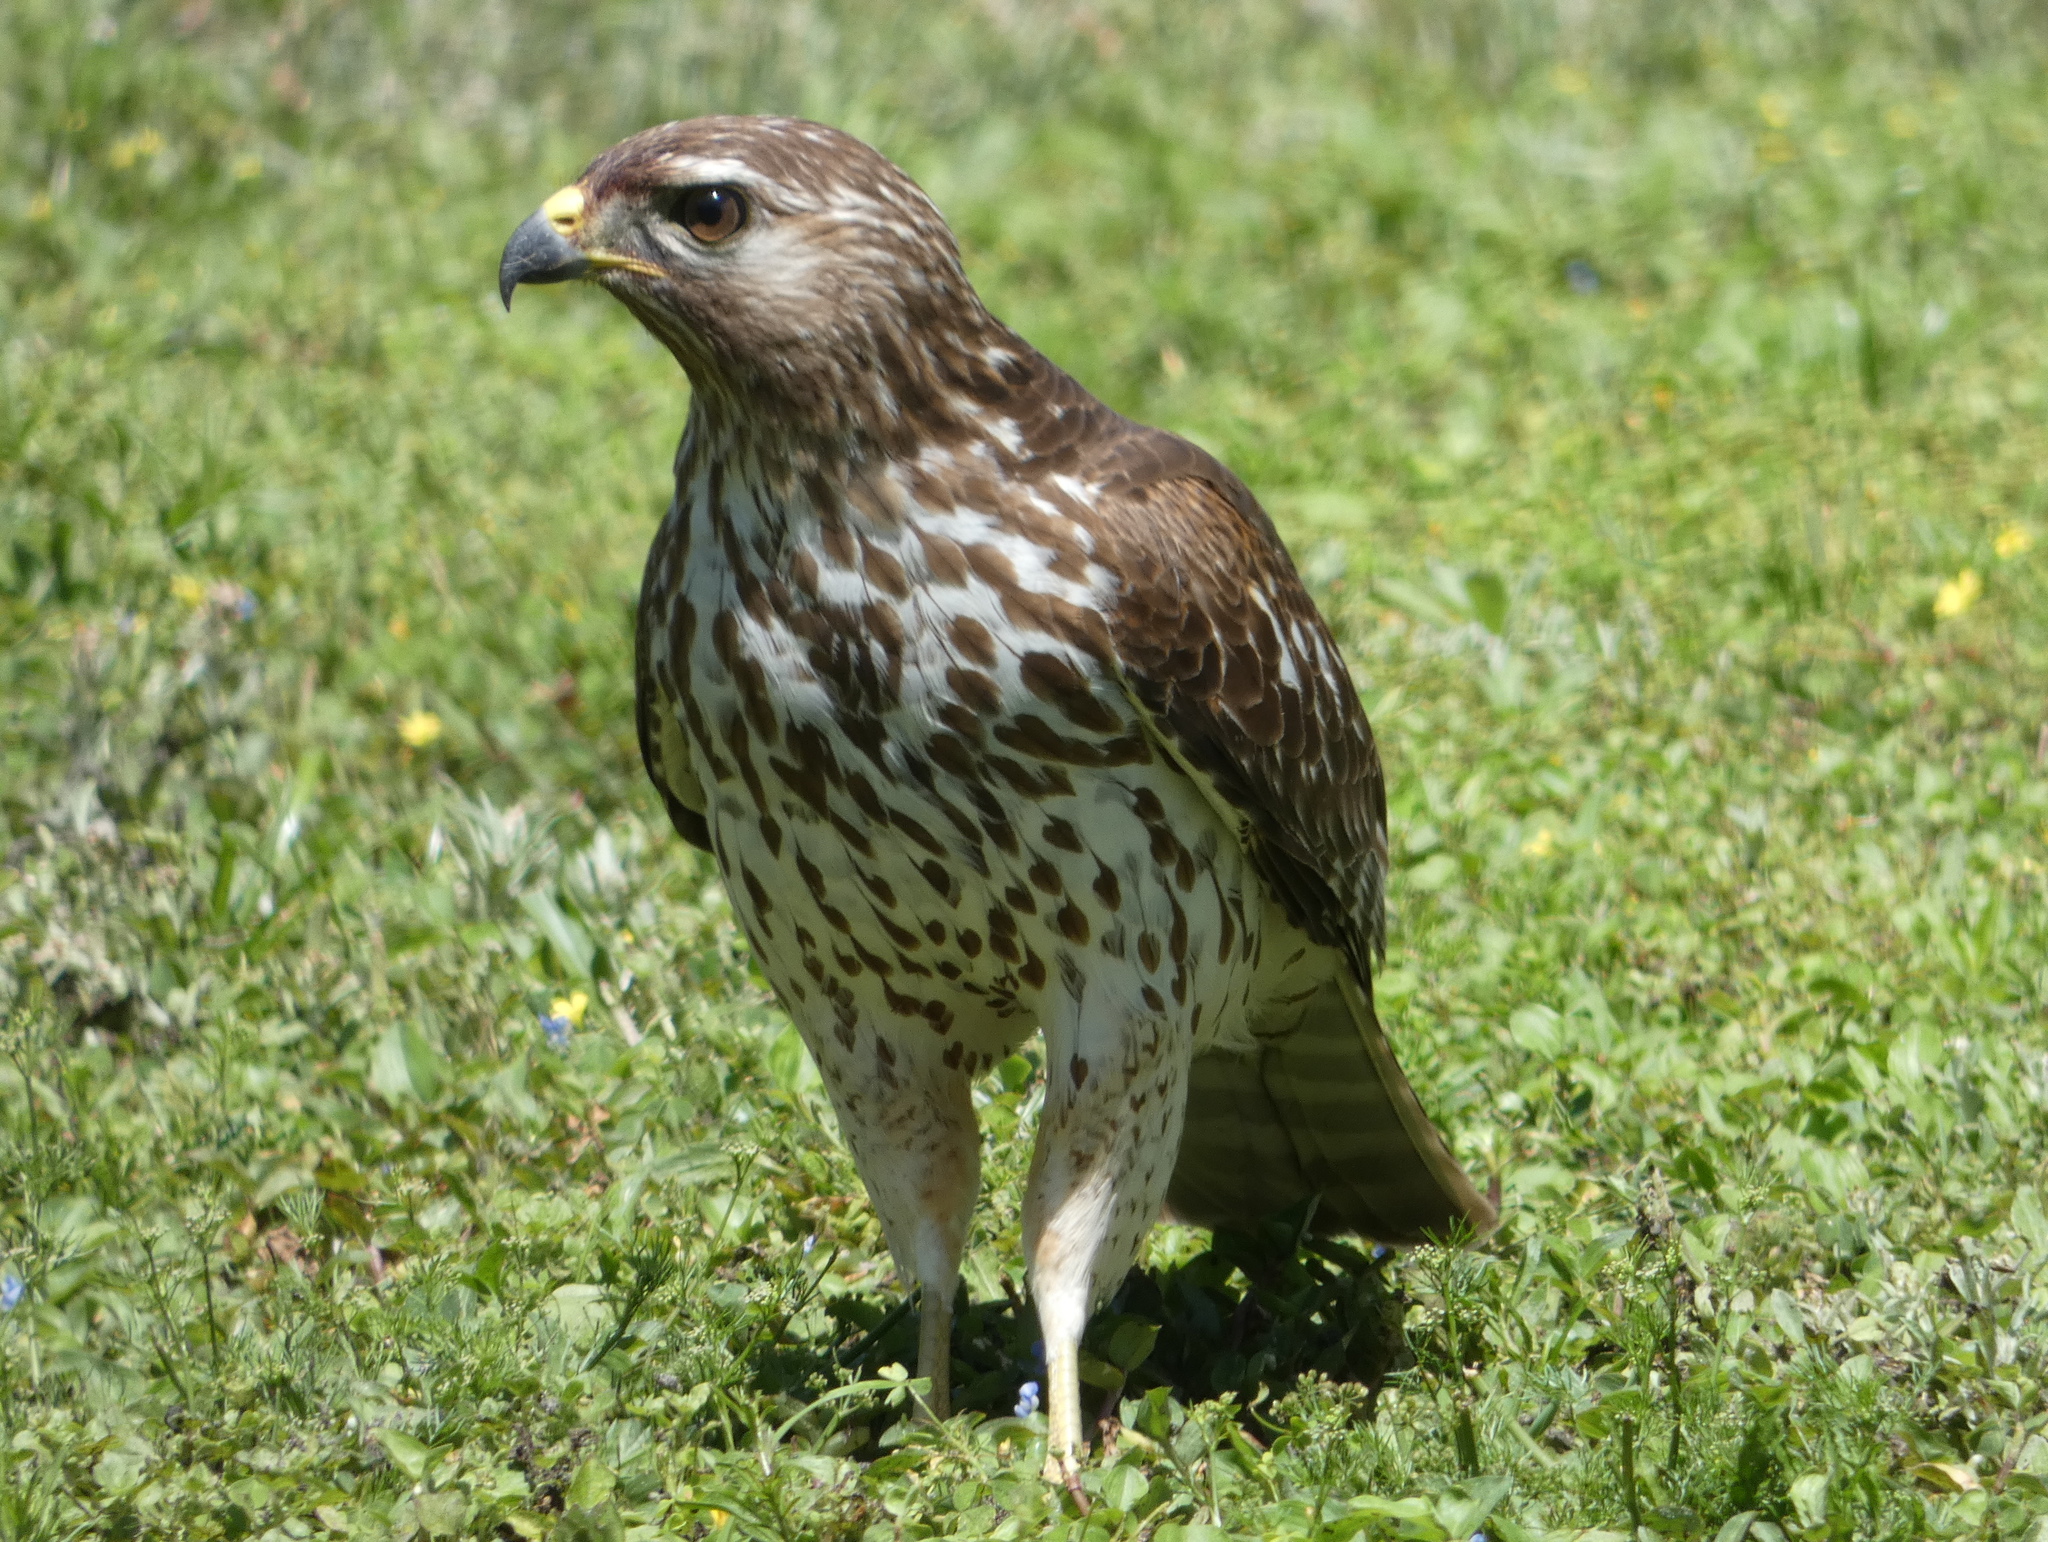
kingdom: Animalia
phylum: Chordata
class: Aves
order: Accipitriformes
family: Accipitridae
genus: Buteo
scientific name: Buteo lineatus
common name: Red-shouldered hawk
